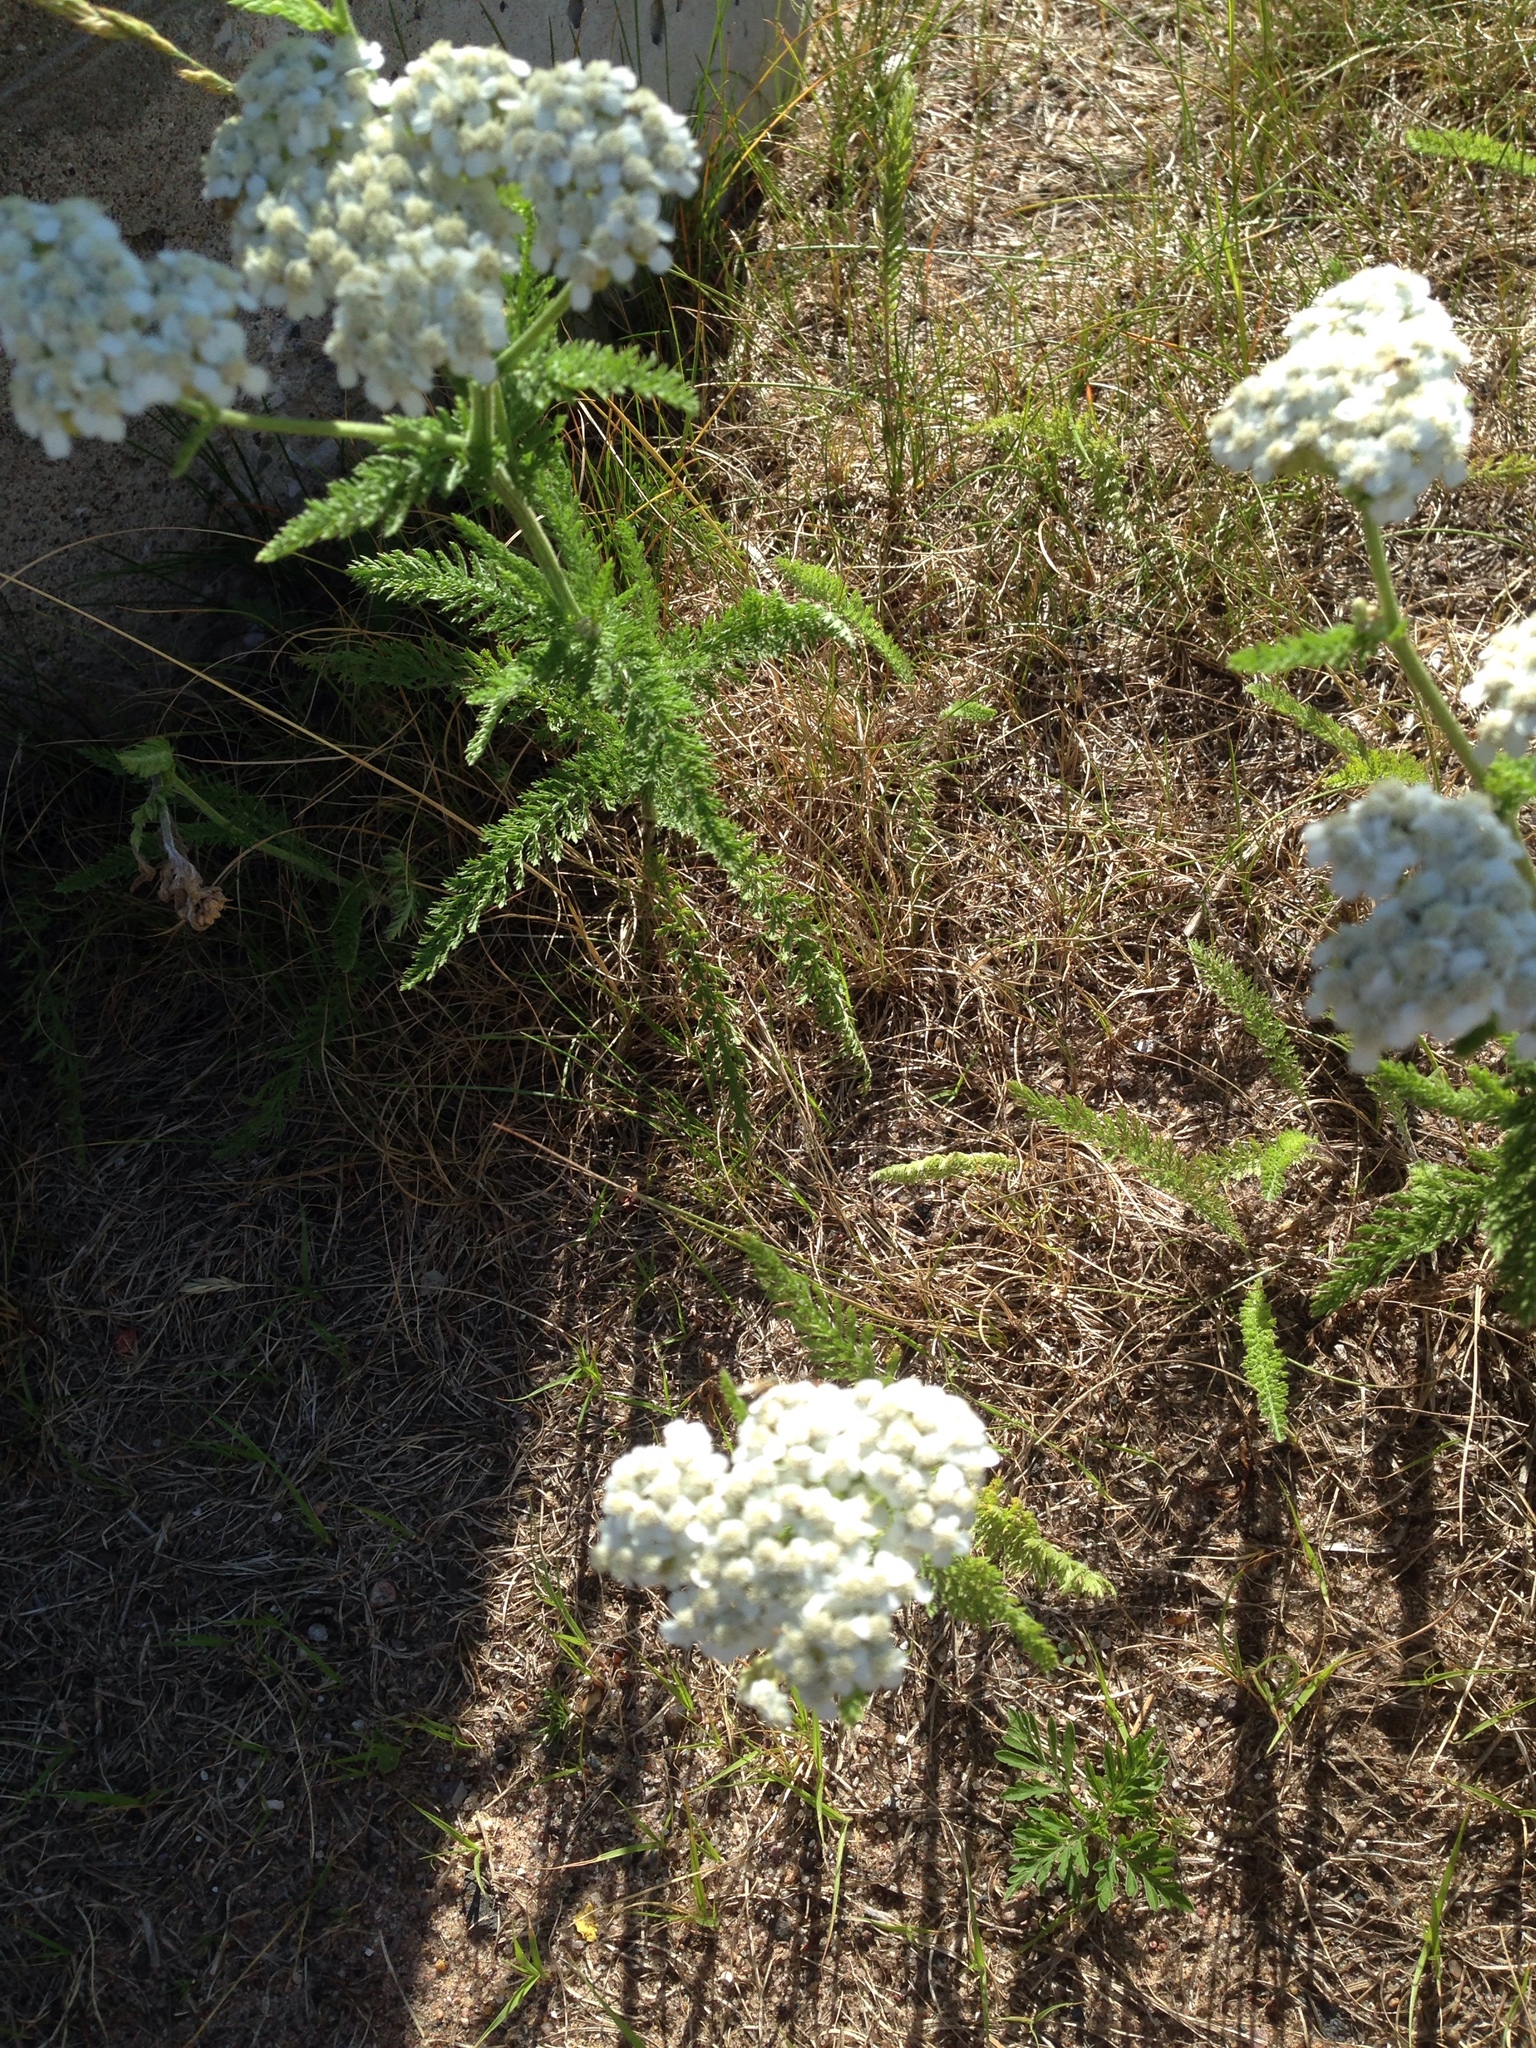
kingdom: Plantae
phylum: Tracheophyta
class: Magnoliopsida
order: Asterales
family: Asteraceae
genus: Achillea
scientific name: Achillea millefolium
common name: Yarrow
